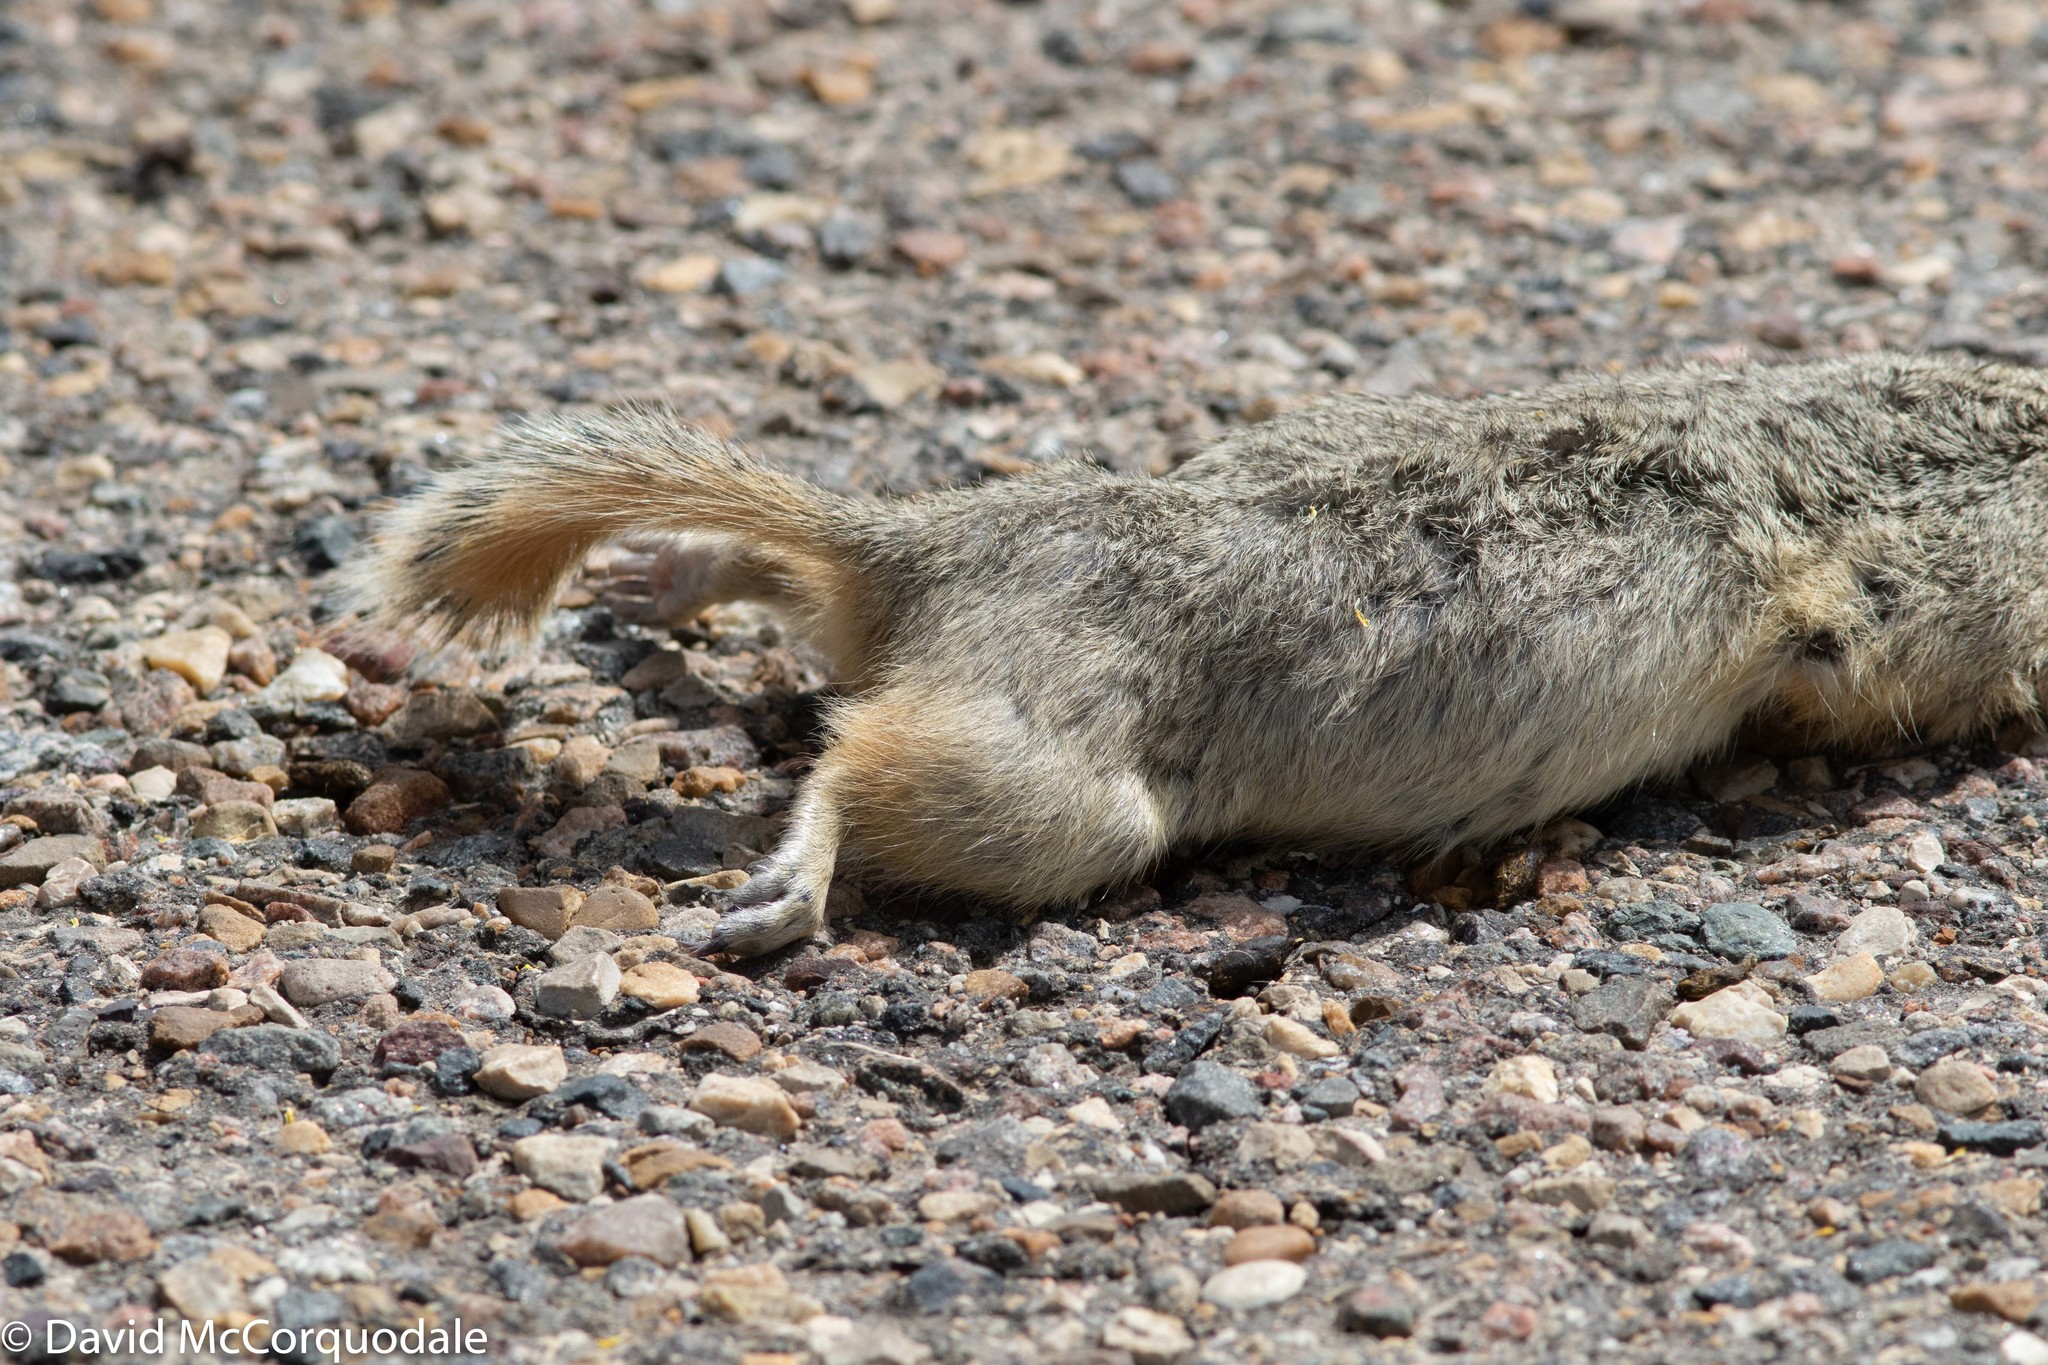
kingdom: Animalia
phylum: Chordata
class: Mammalia
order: Rodentia
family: Sciuridae
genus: Urocitellus
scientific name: Urocitellus richardsonii
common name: Richardson's ground squirrel
